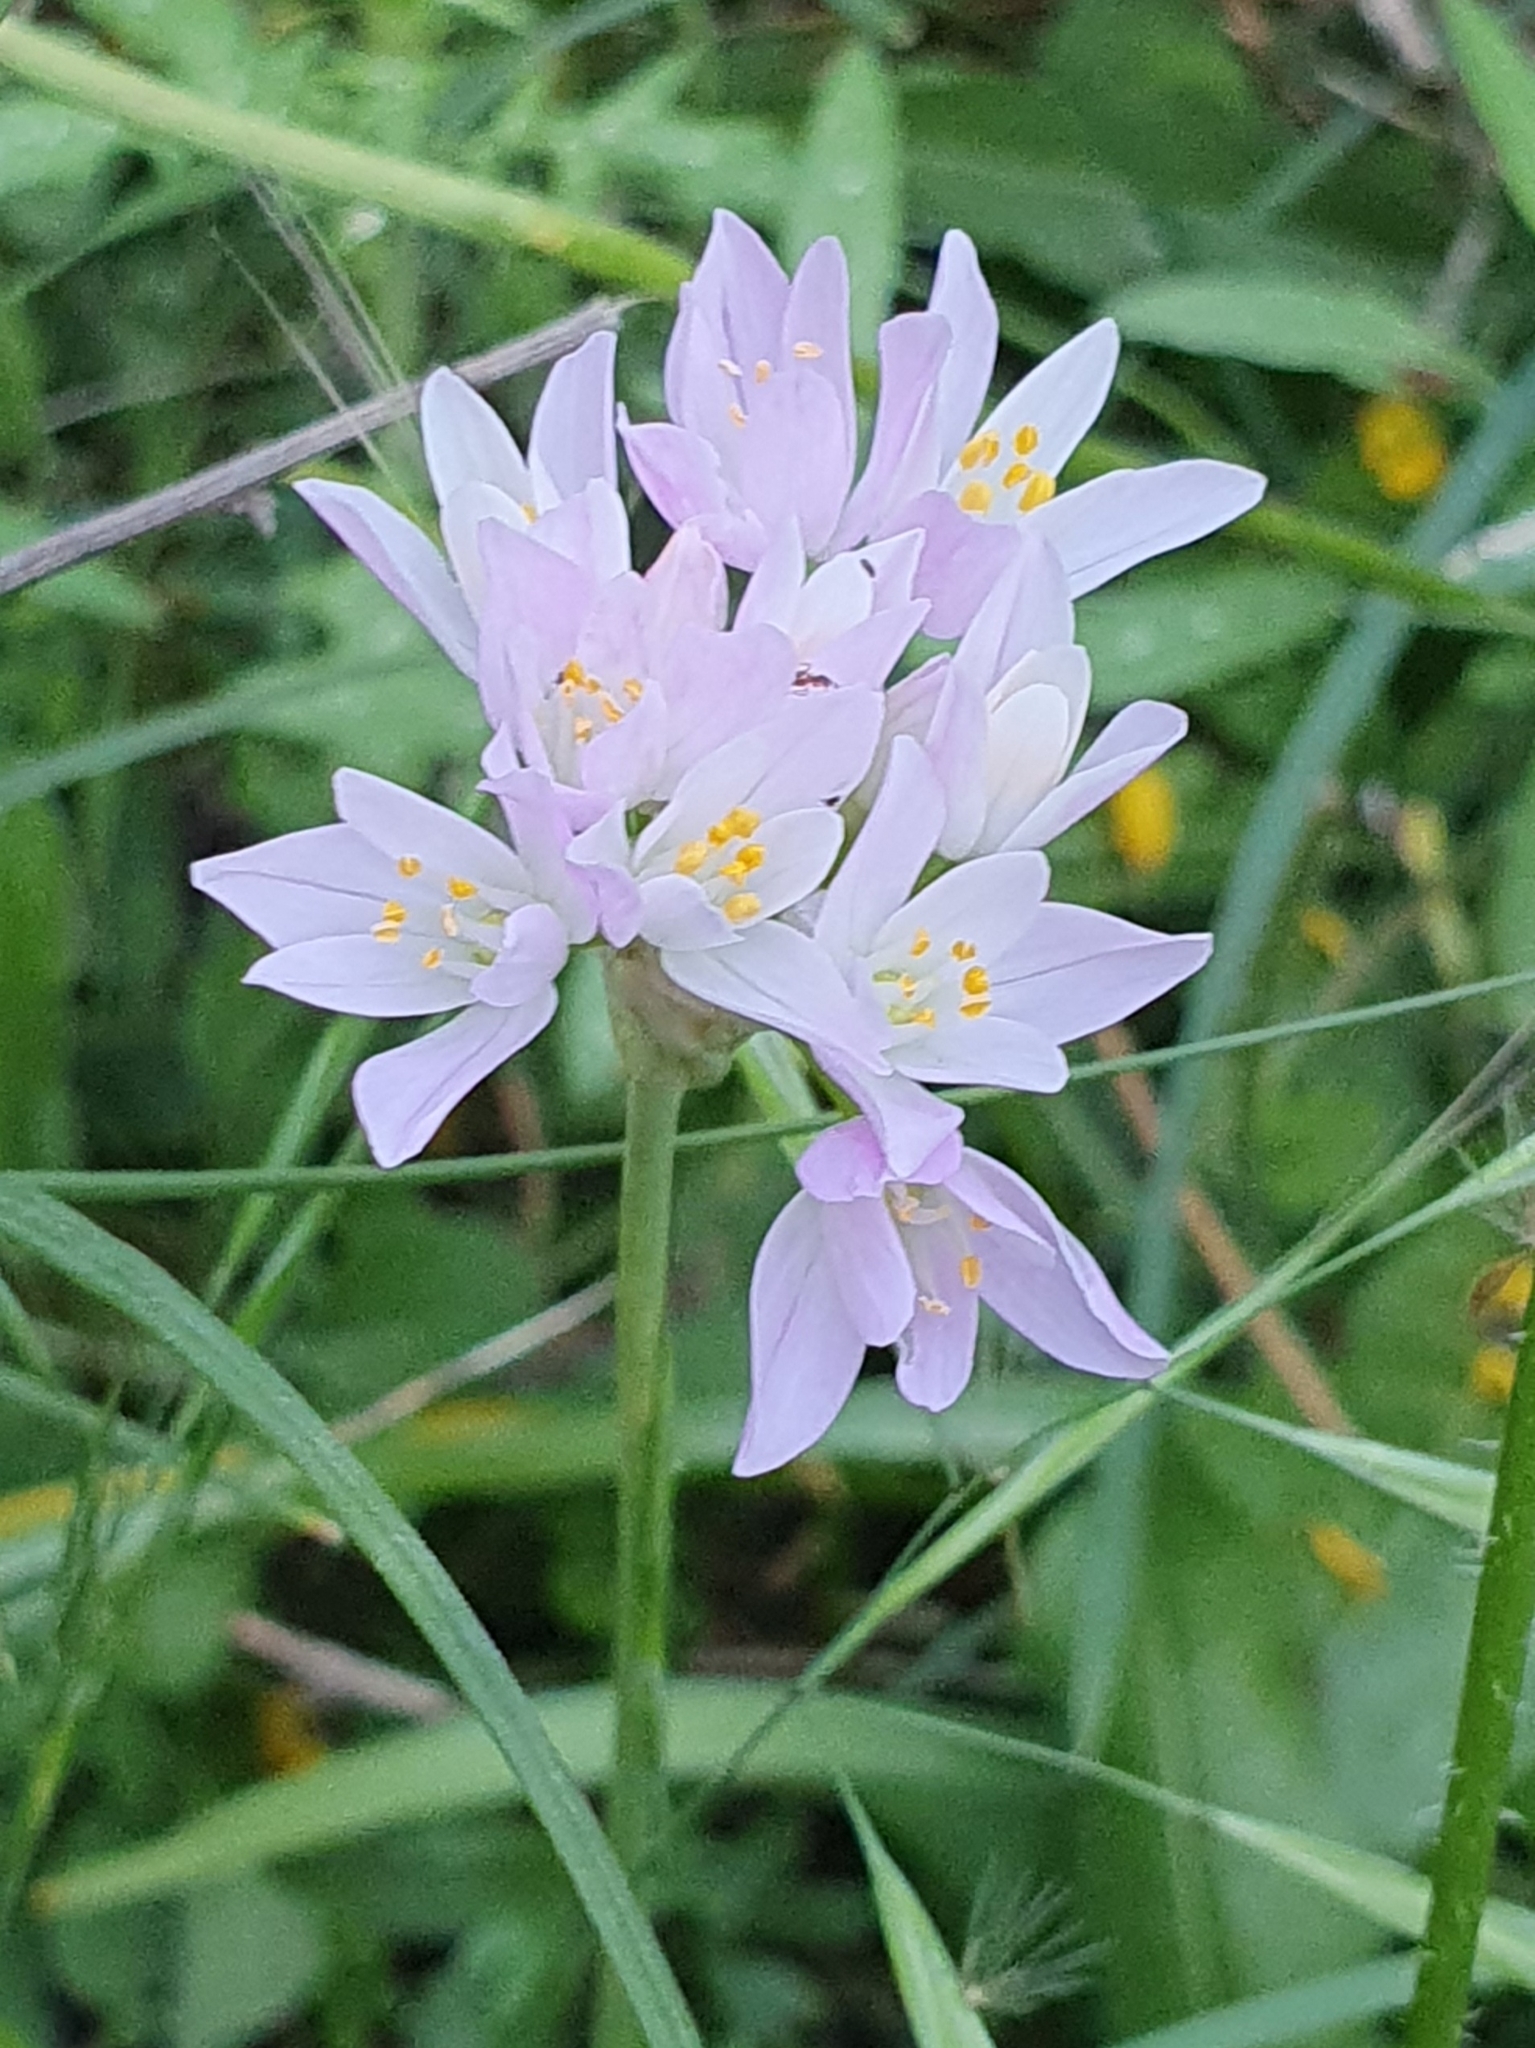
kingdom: Plantae
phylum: Tracheophyta
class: Liliopsida
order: Asparagales
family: Amaryllidaceae
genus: Allium
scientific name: Allium roseum
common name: Rosy garlic
